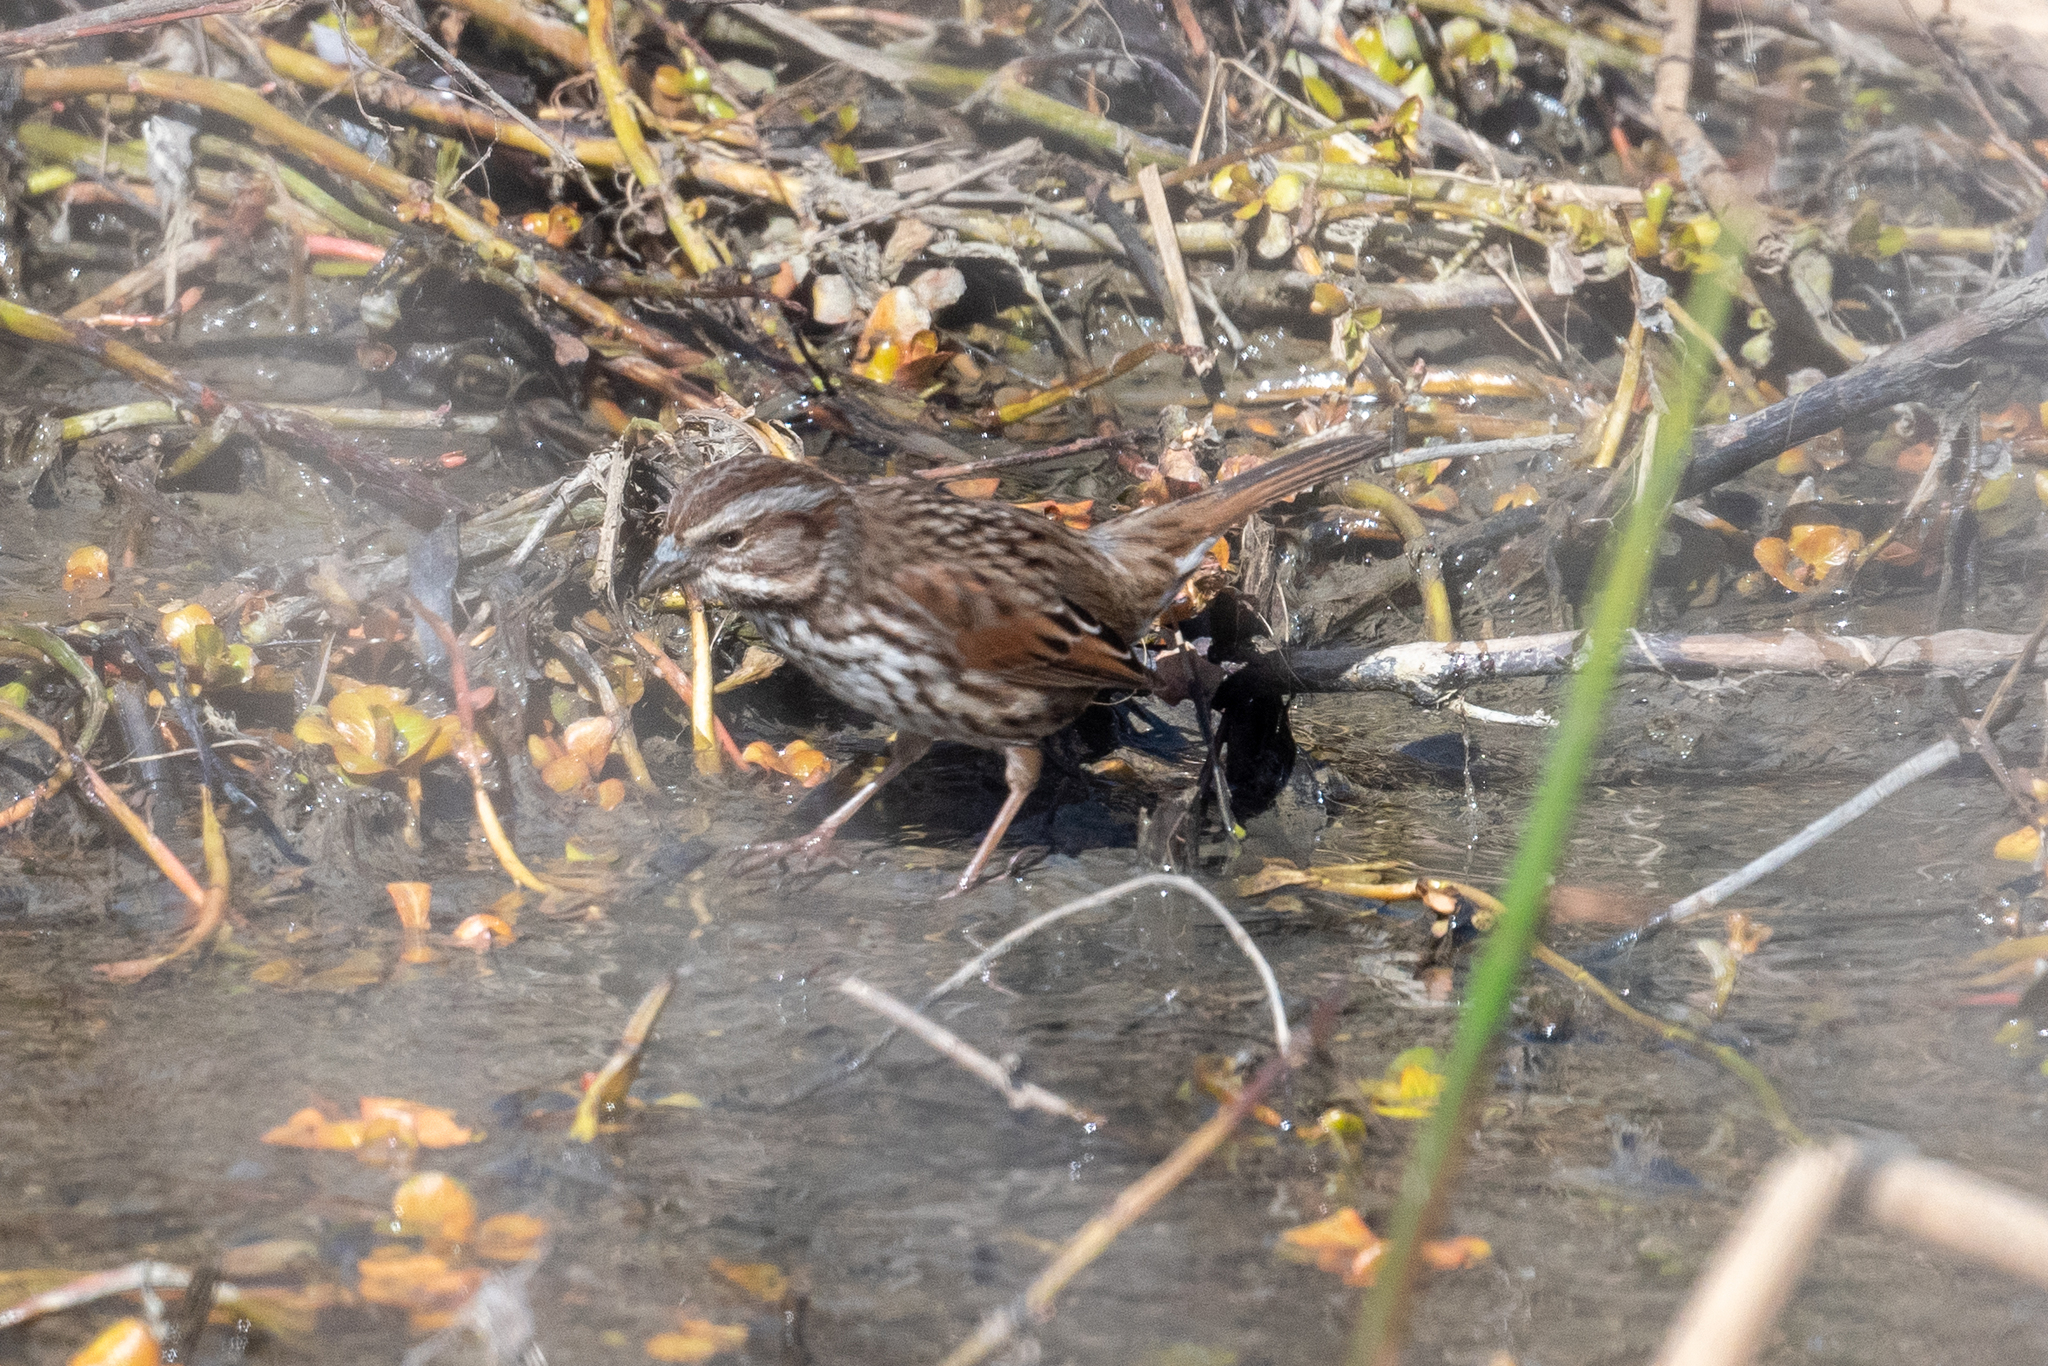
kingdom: Animalia
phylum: Chordata
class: Aves
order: Passeriformes
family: Passerellidae
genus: Melospiza
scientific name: Melospiza melodia
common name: Song sparrow
